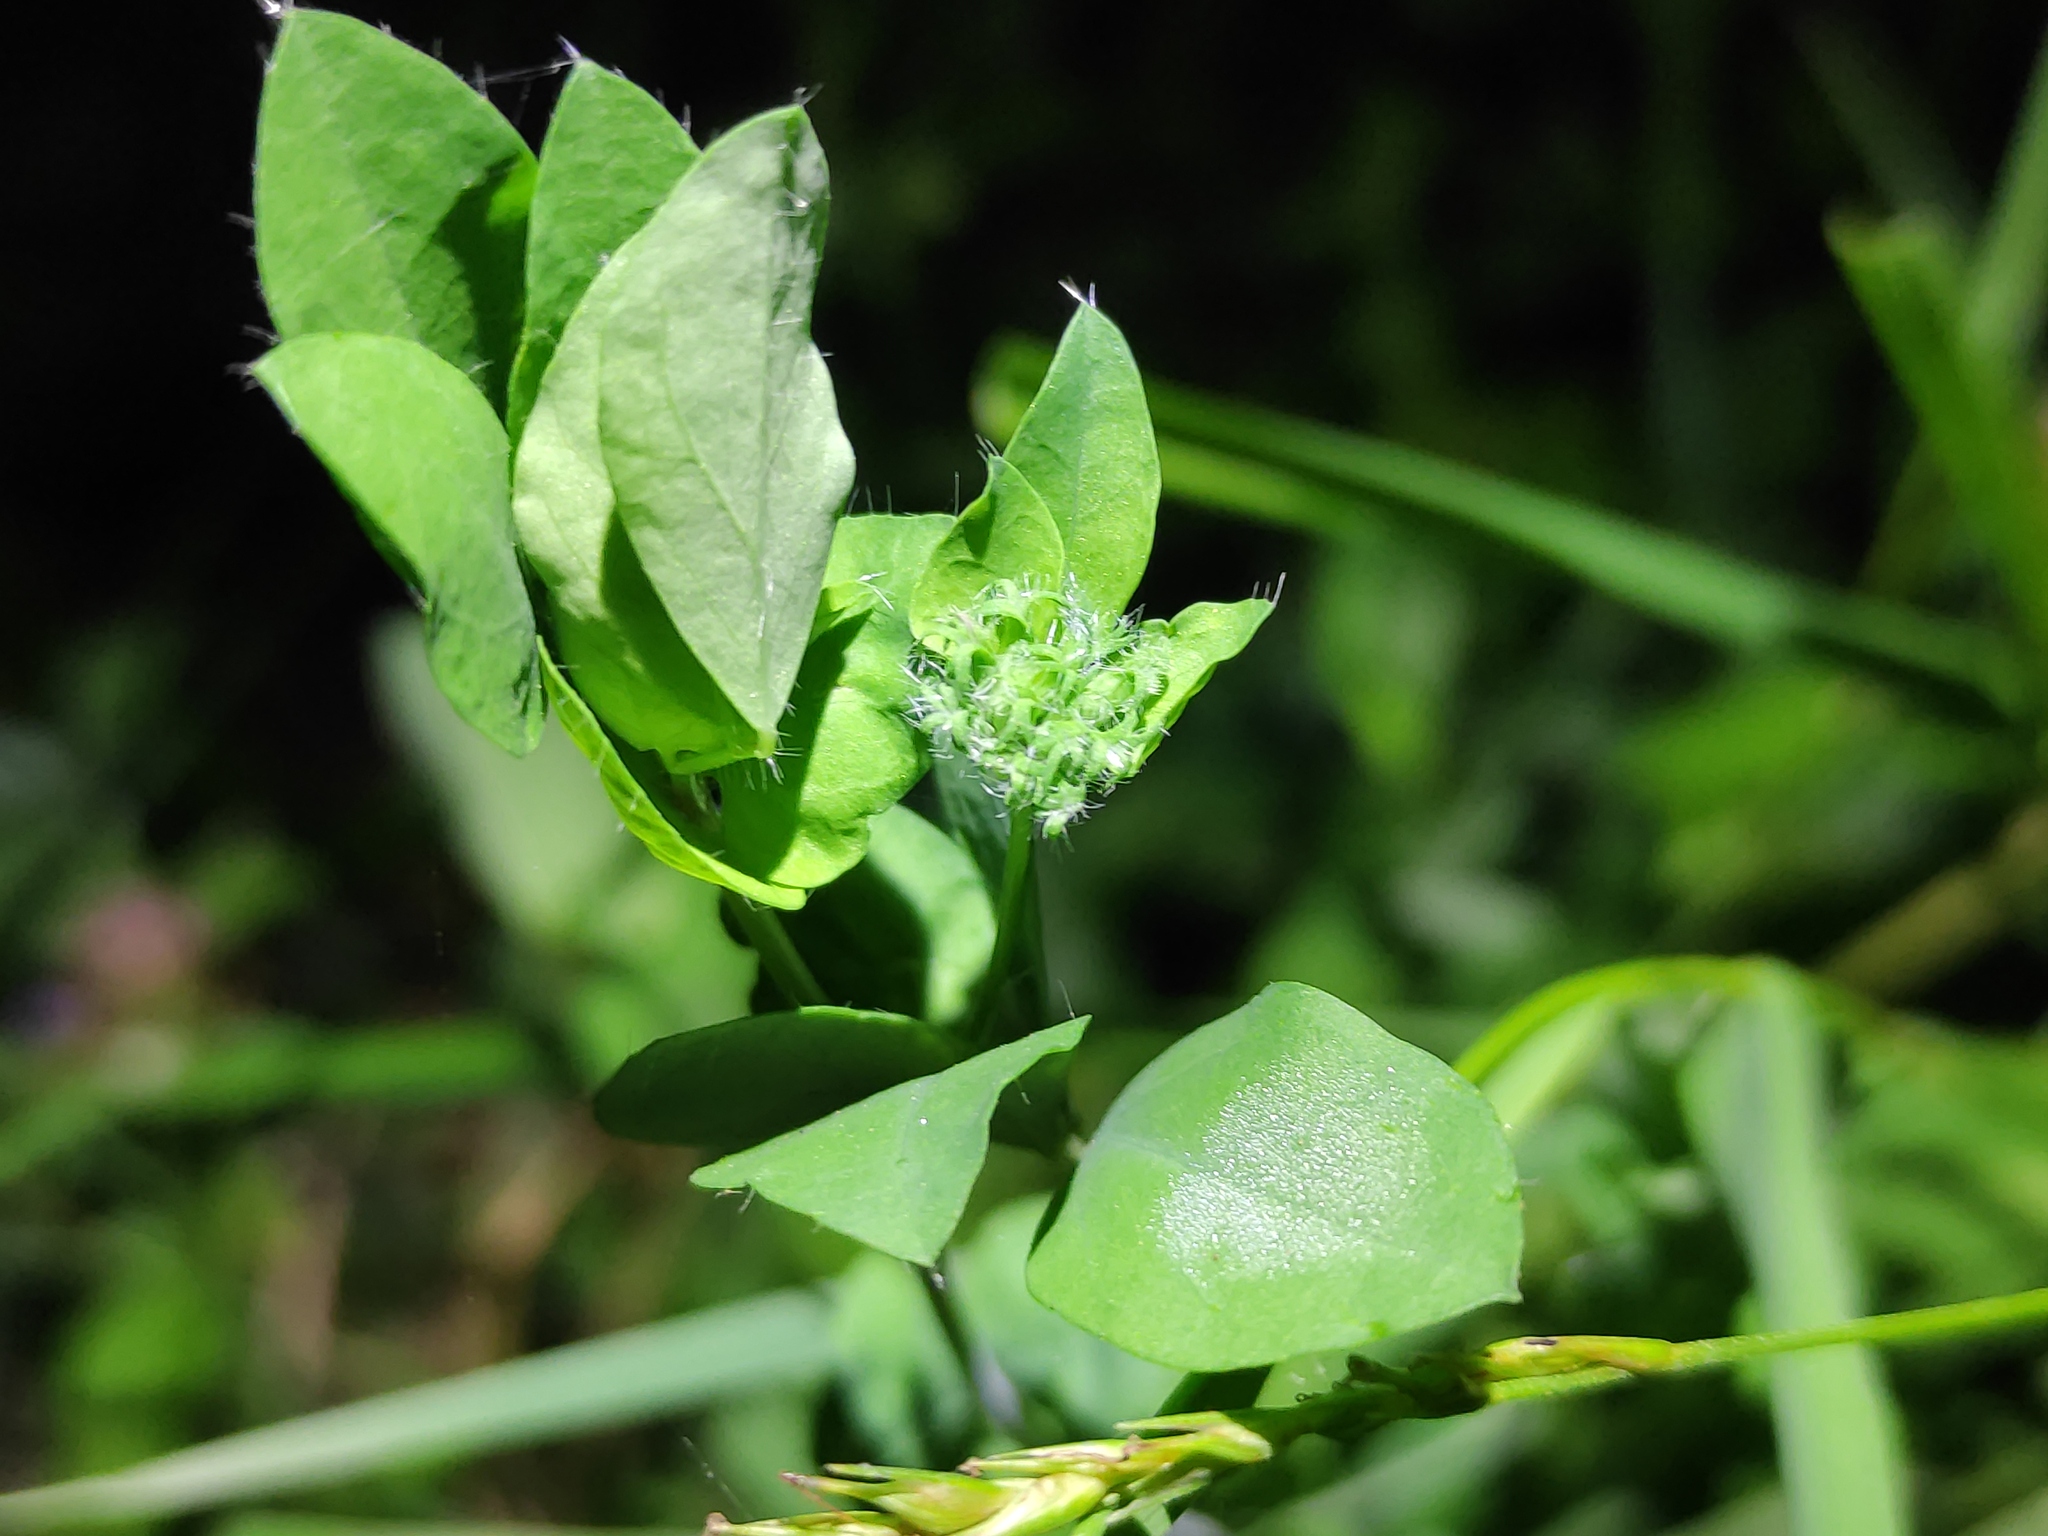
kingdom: Plantae
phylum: Tracheophyta
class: Magnoliopsida
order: Fabales
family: Fabaceae
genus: Lotus
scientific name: Lotus pedunculatus
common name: Greater birdsfoot-trefoil
